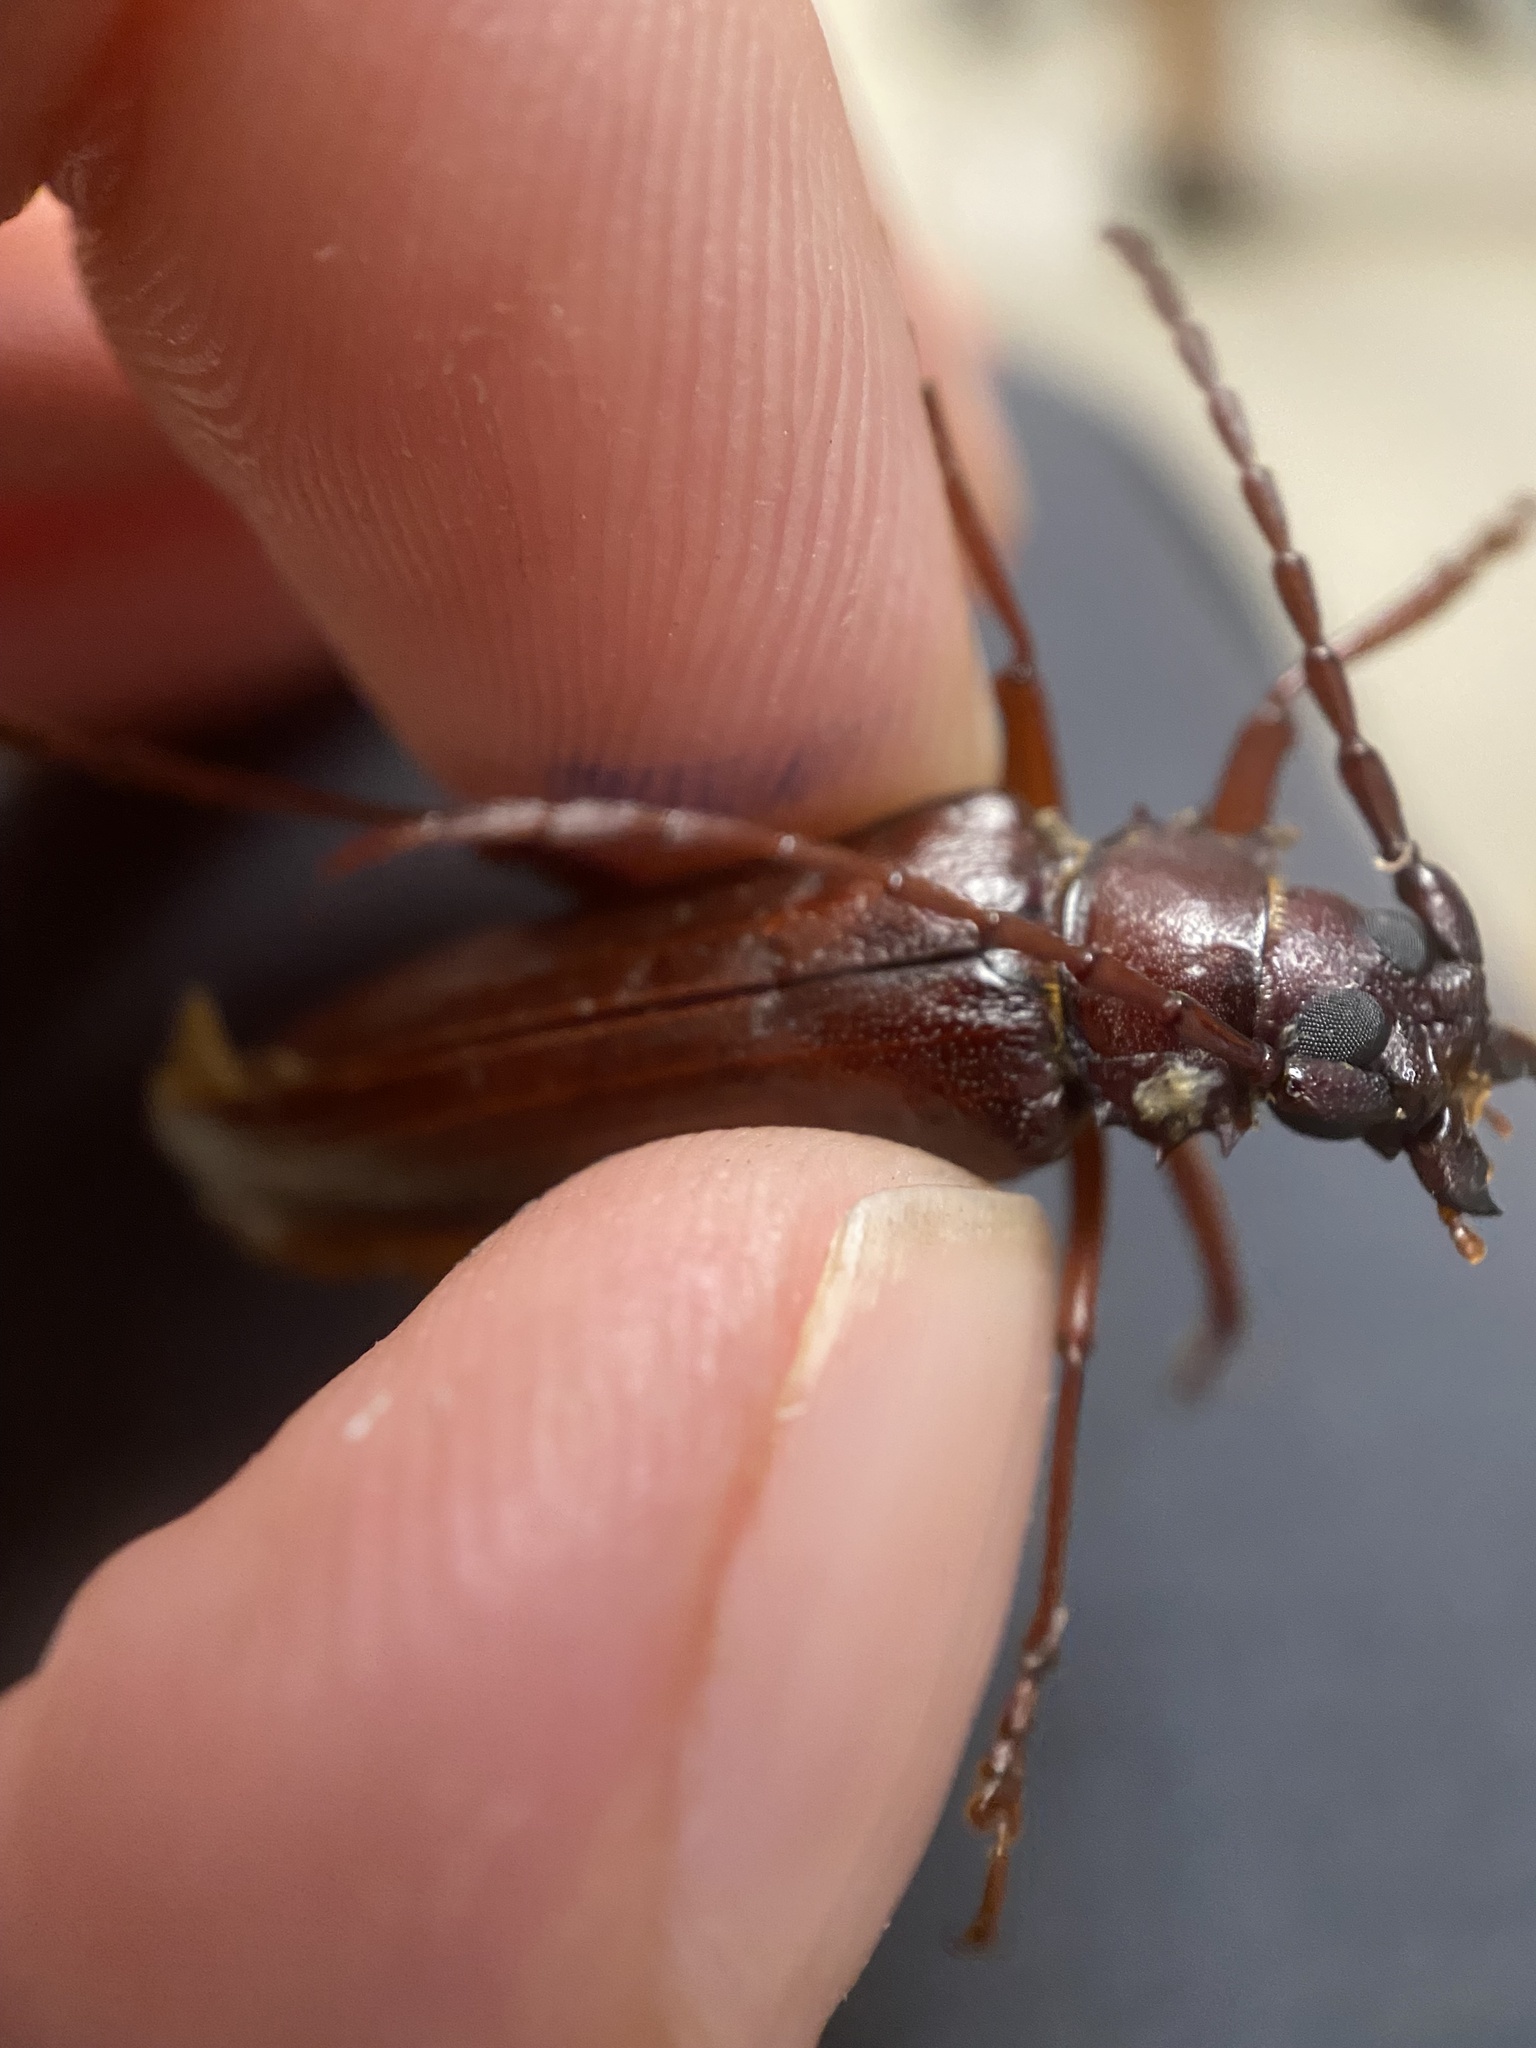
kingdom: Animalia
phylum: Arthropoda
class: Insecta
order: Coleoptera
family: Cerambycidae
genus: Orthosoma
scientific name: Orthosoma brunneum
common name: Brown prionid beetle
